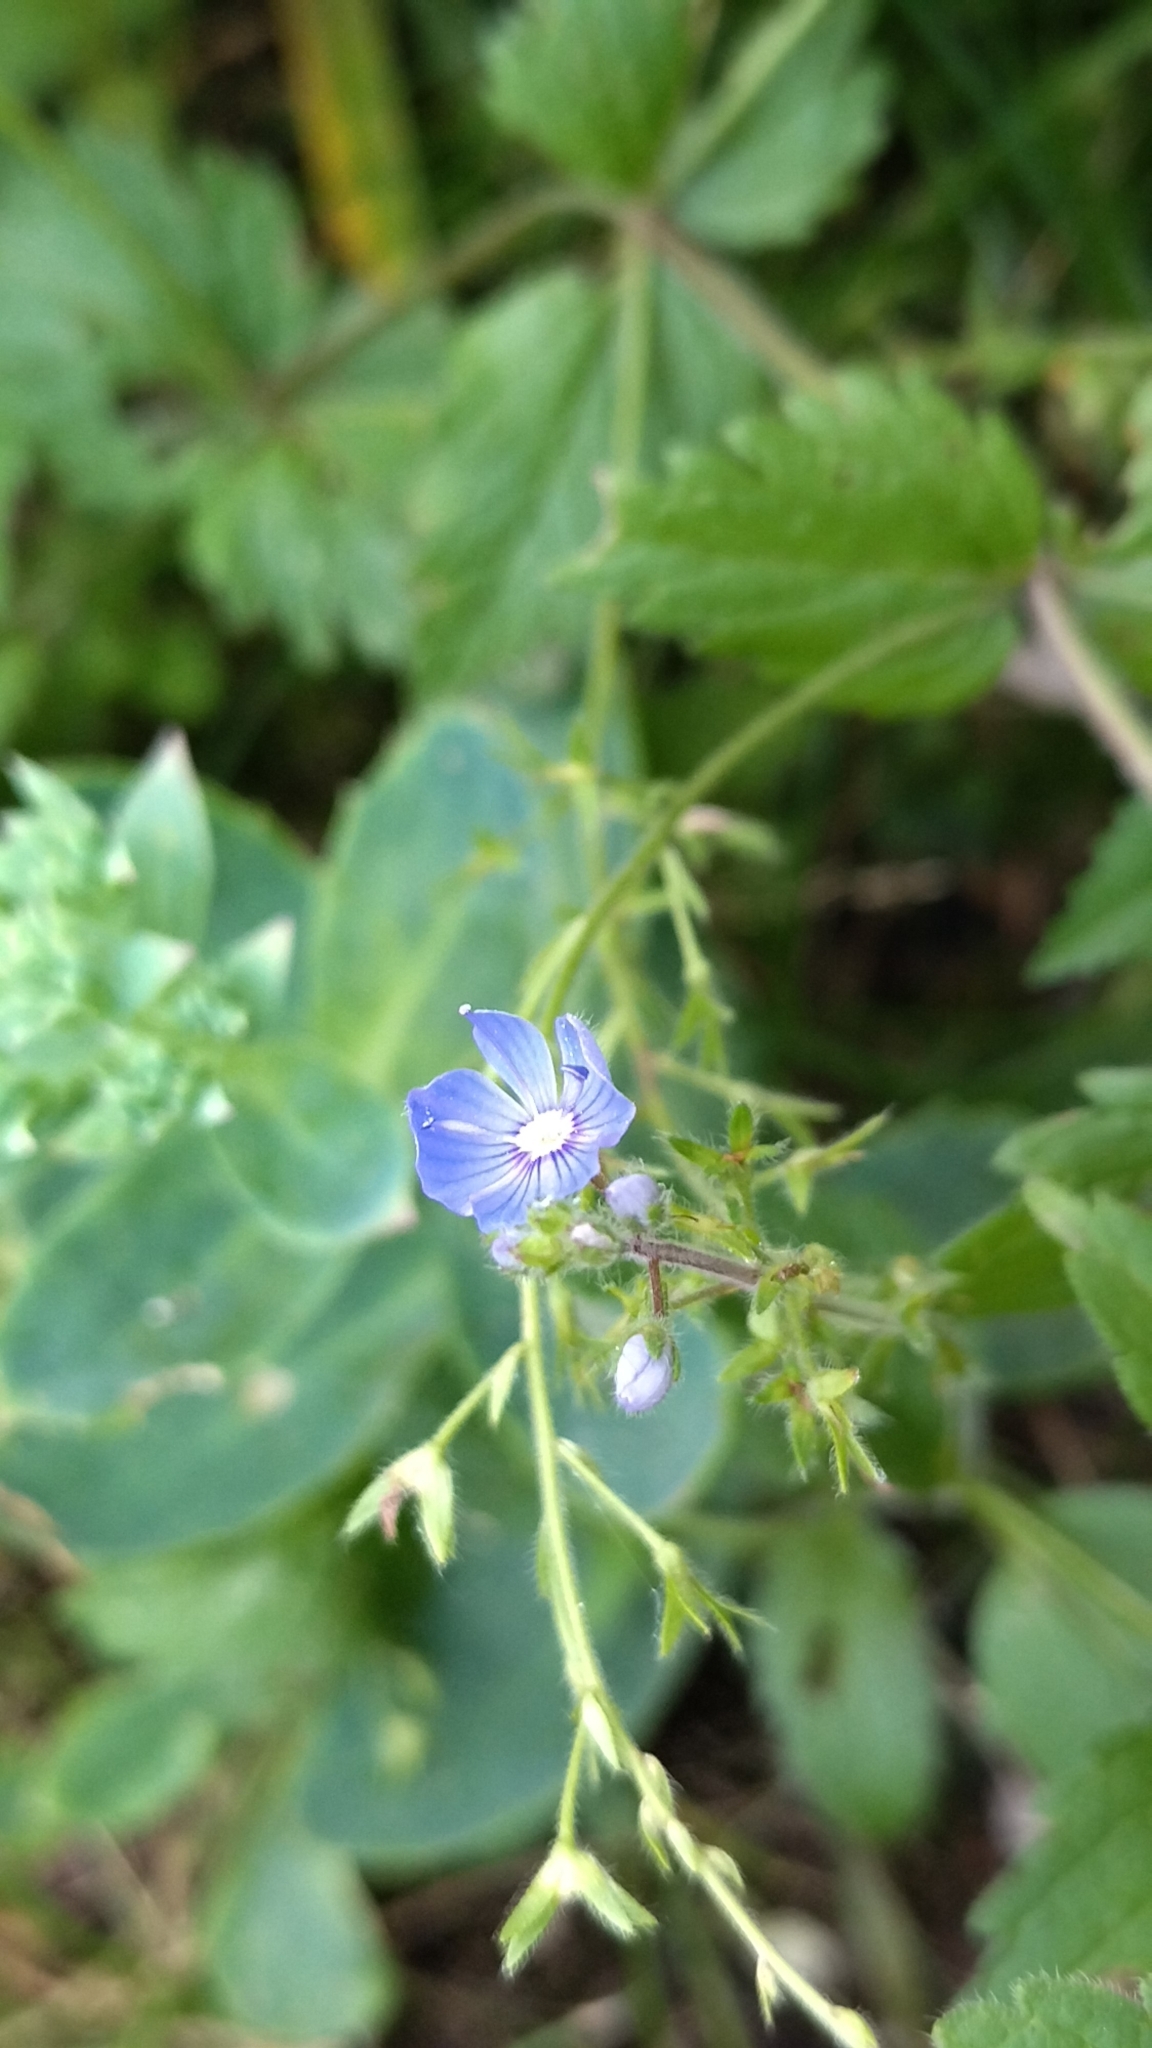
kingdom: Plantae
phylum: Tracheophyta
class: Magnoliopsida
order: Lamiales
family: Plantaginaceae
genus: Veronica
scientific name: Veronica chamaedrys
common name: Germander speedwell
